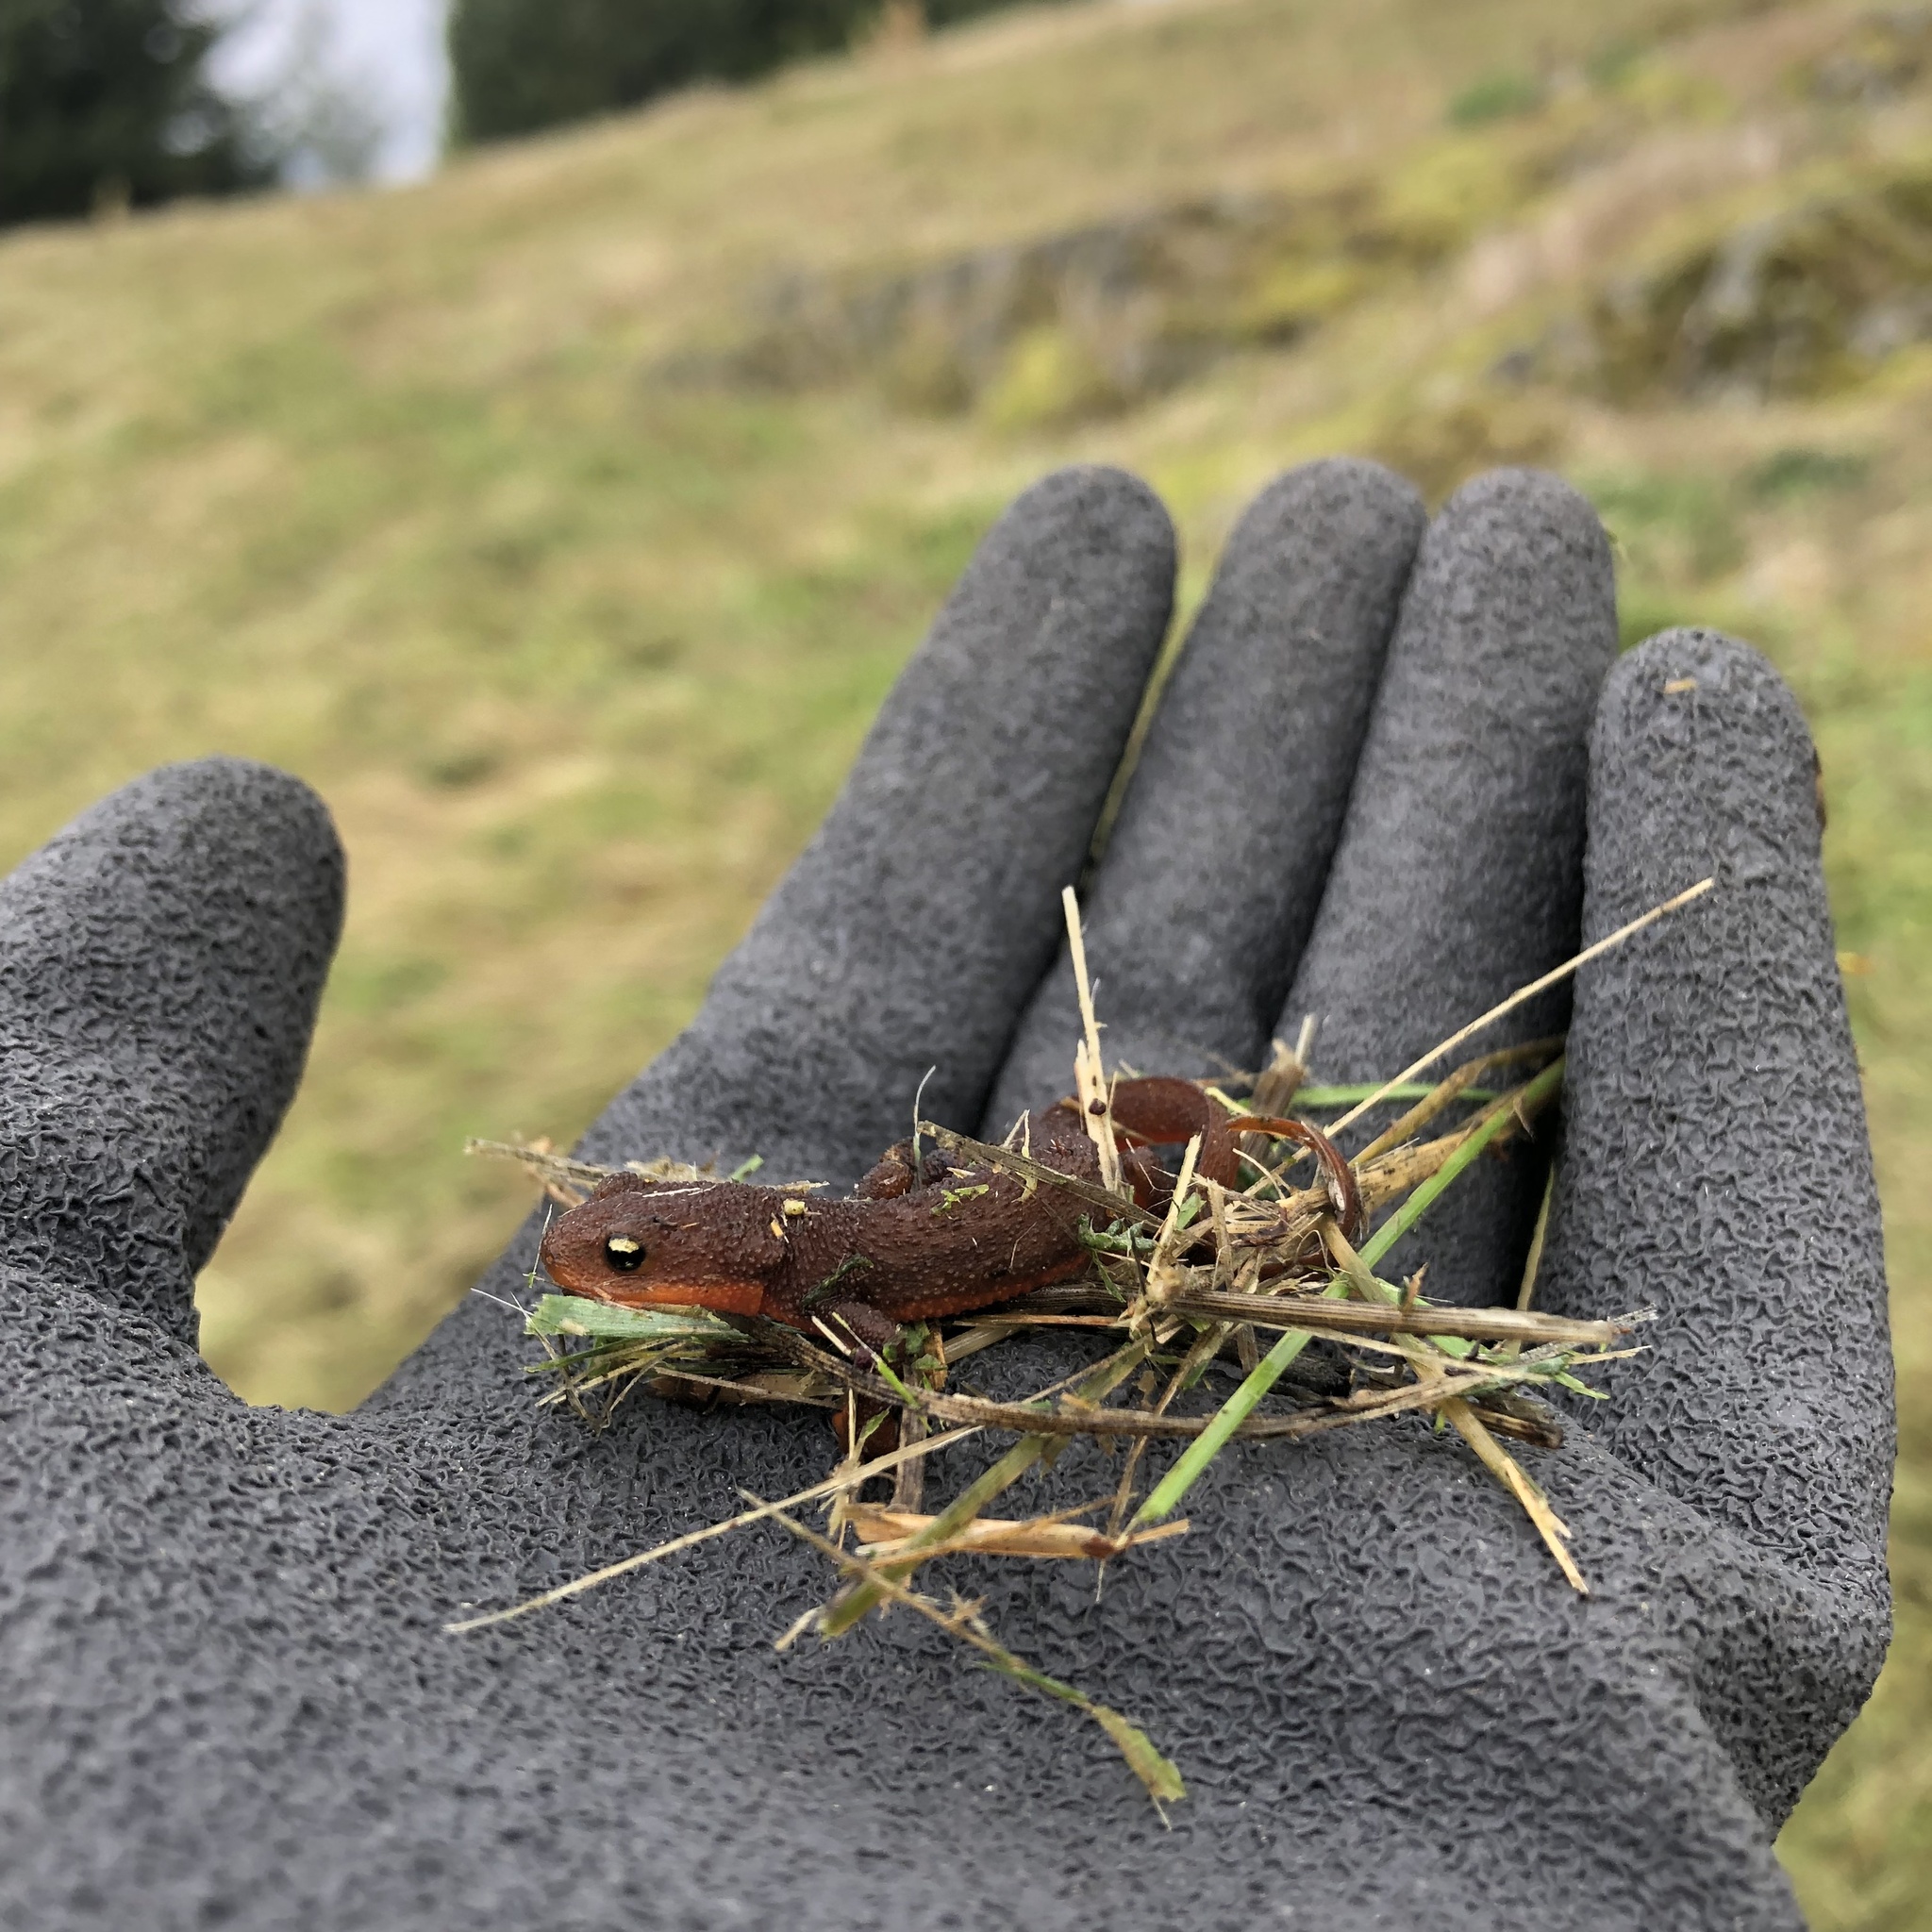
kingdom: Animalia
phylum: Chordata
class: Amphibia
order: Caudata
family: Salamandridae
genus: Taricha
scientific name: Taricha granulosa
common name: Roughskin newt
